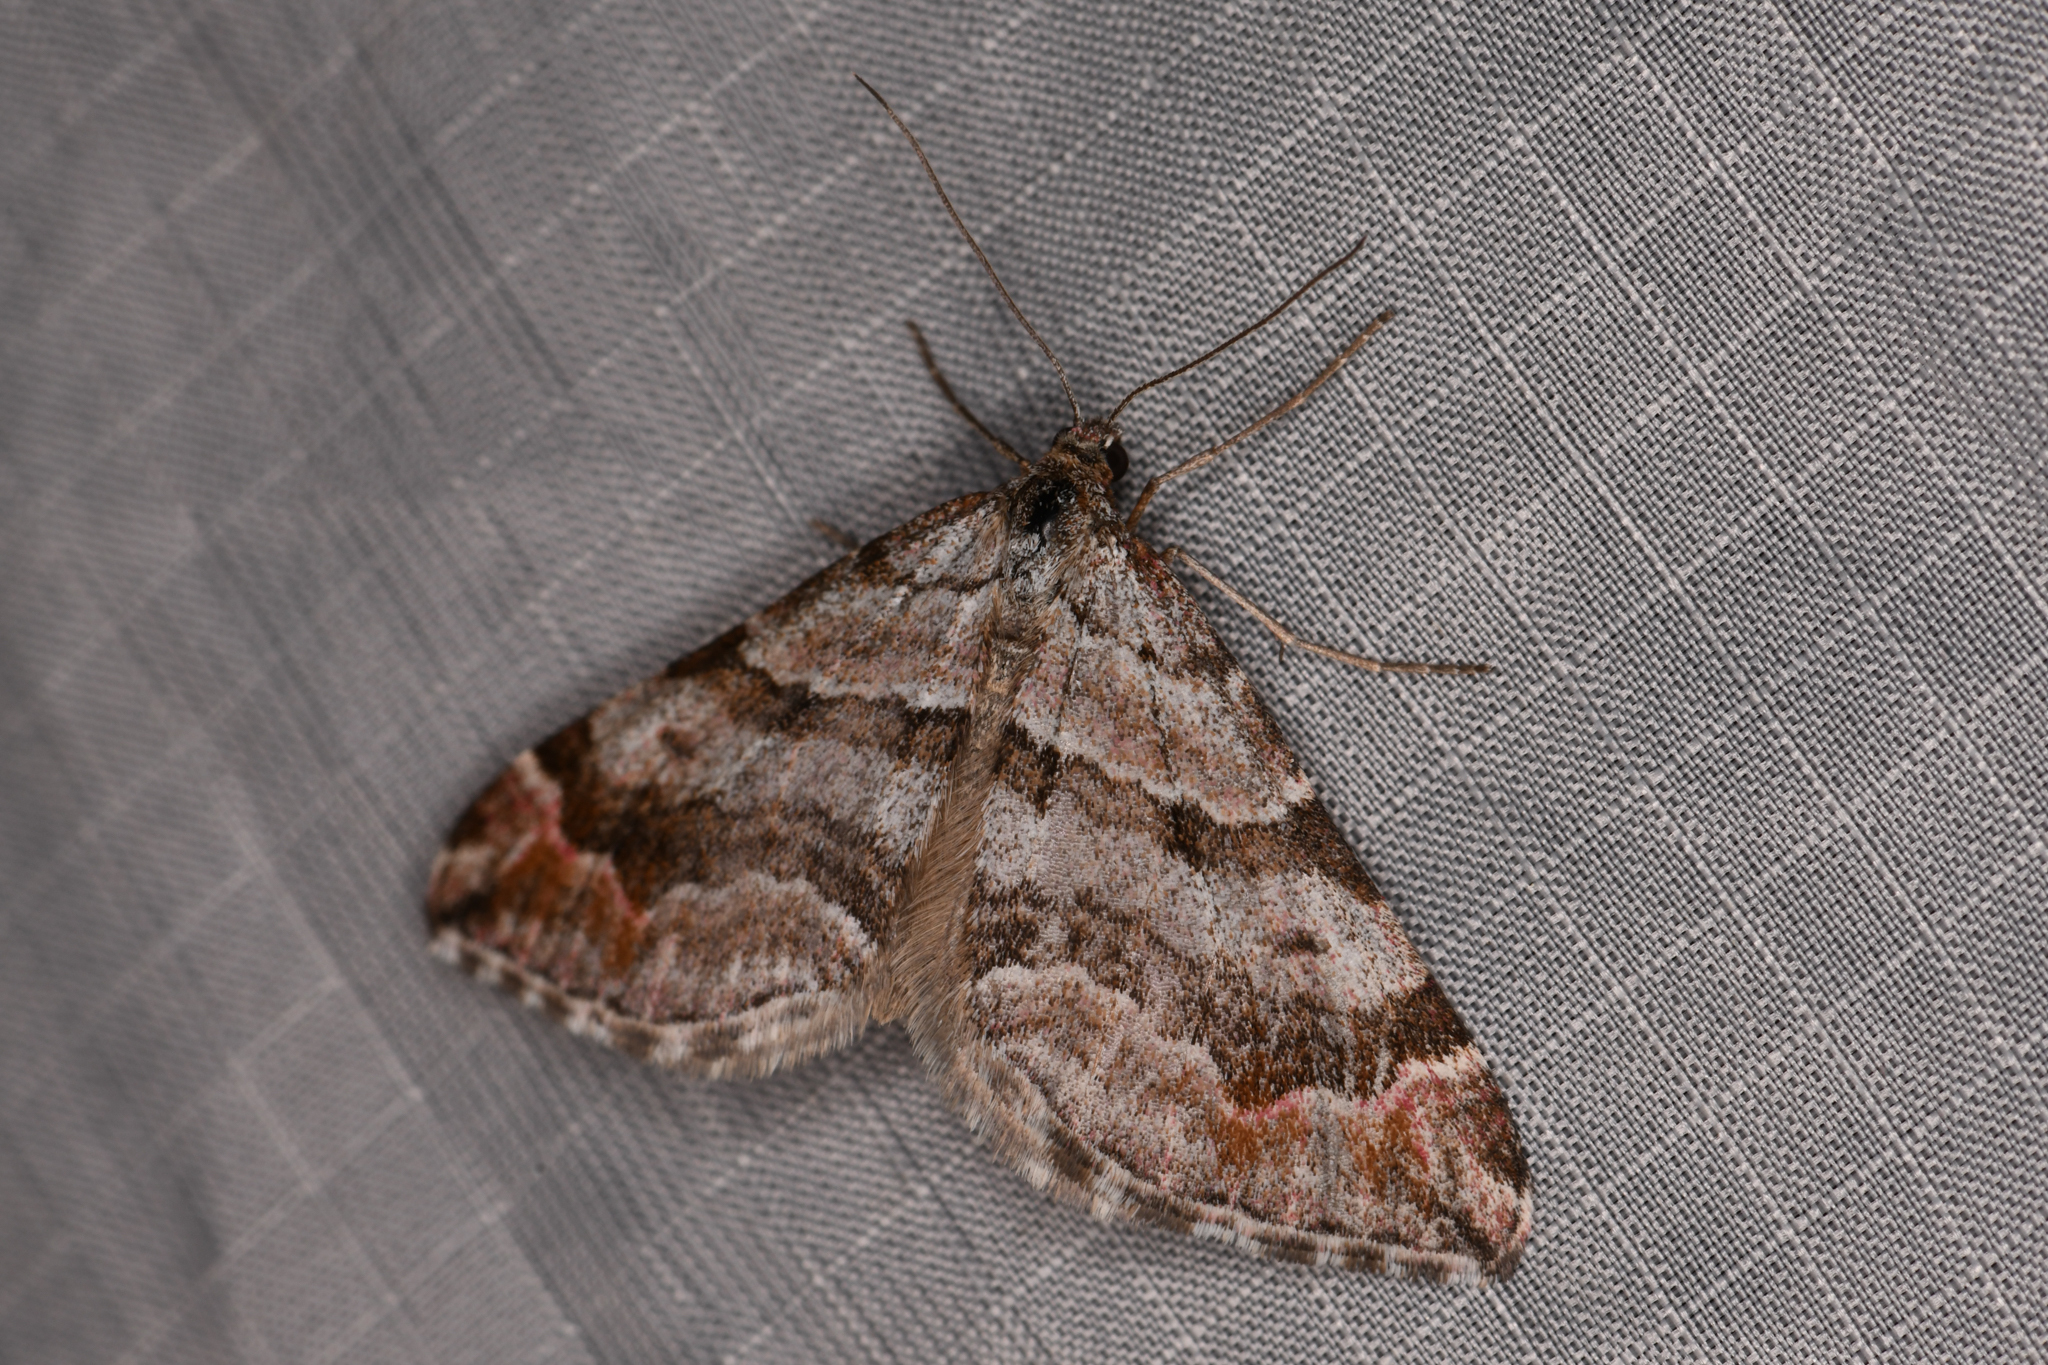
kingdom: Animalia
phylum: Arthropoda
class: Insecta
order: Lepidoptera
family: Geometridae
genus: Carsia
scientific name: Carsia sororiata
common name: Manchester treble-bar
